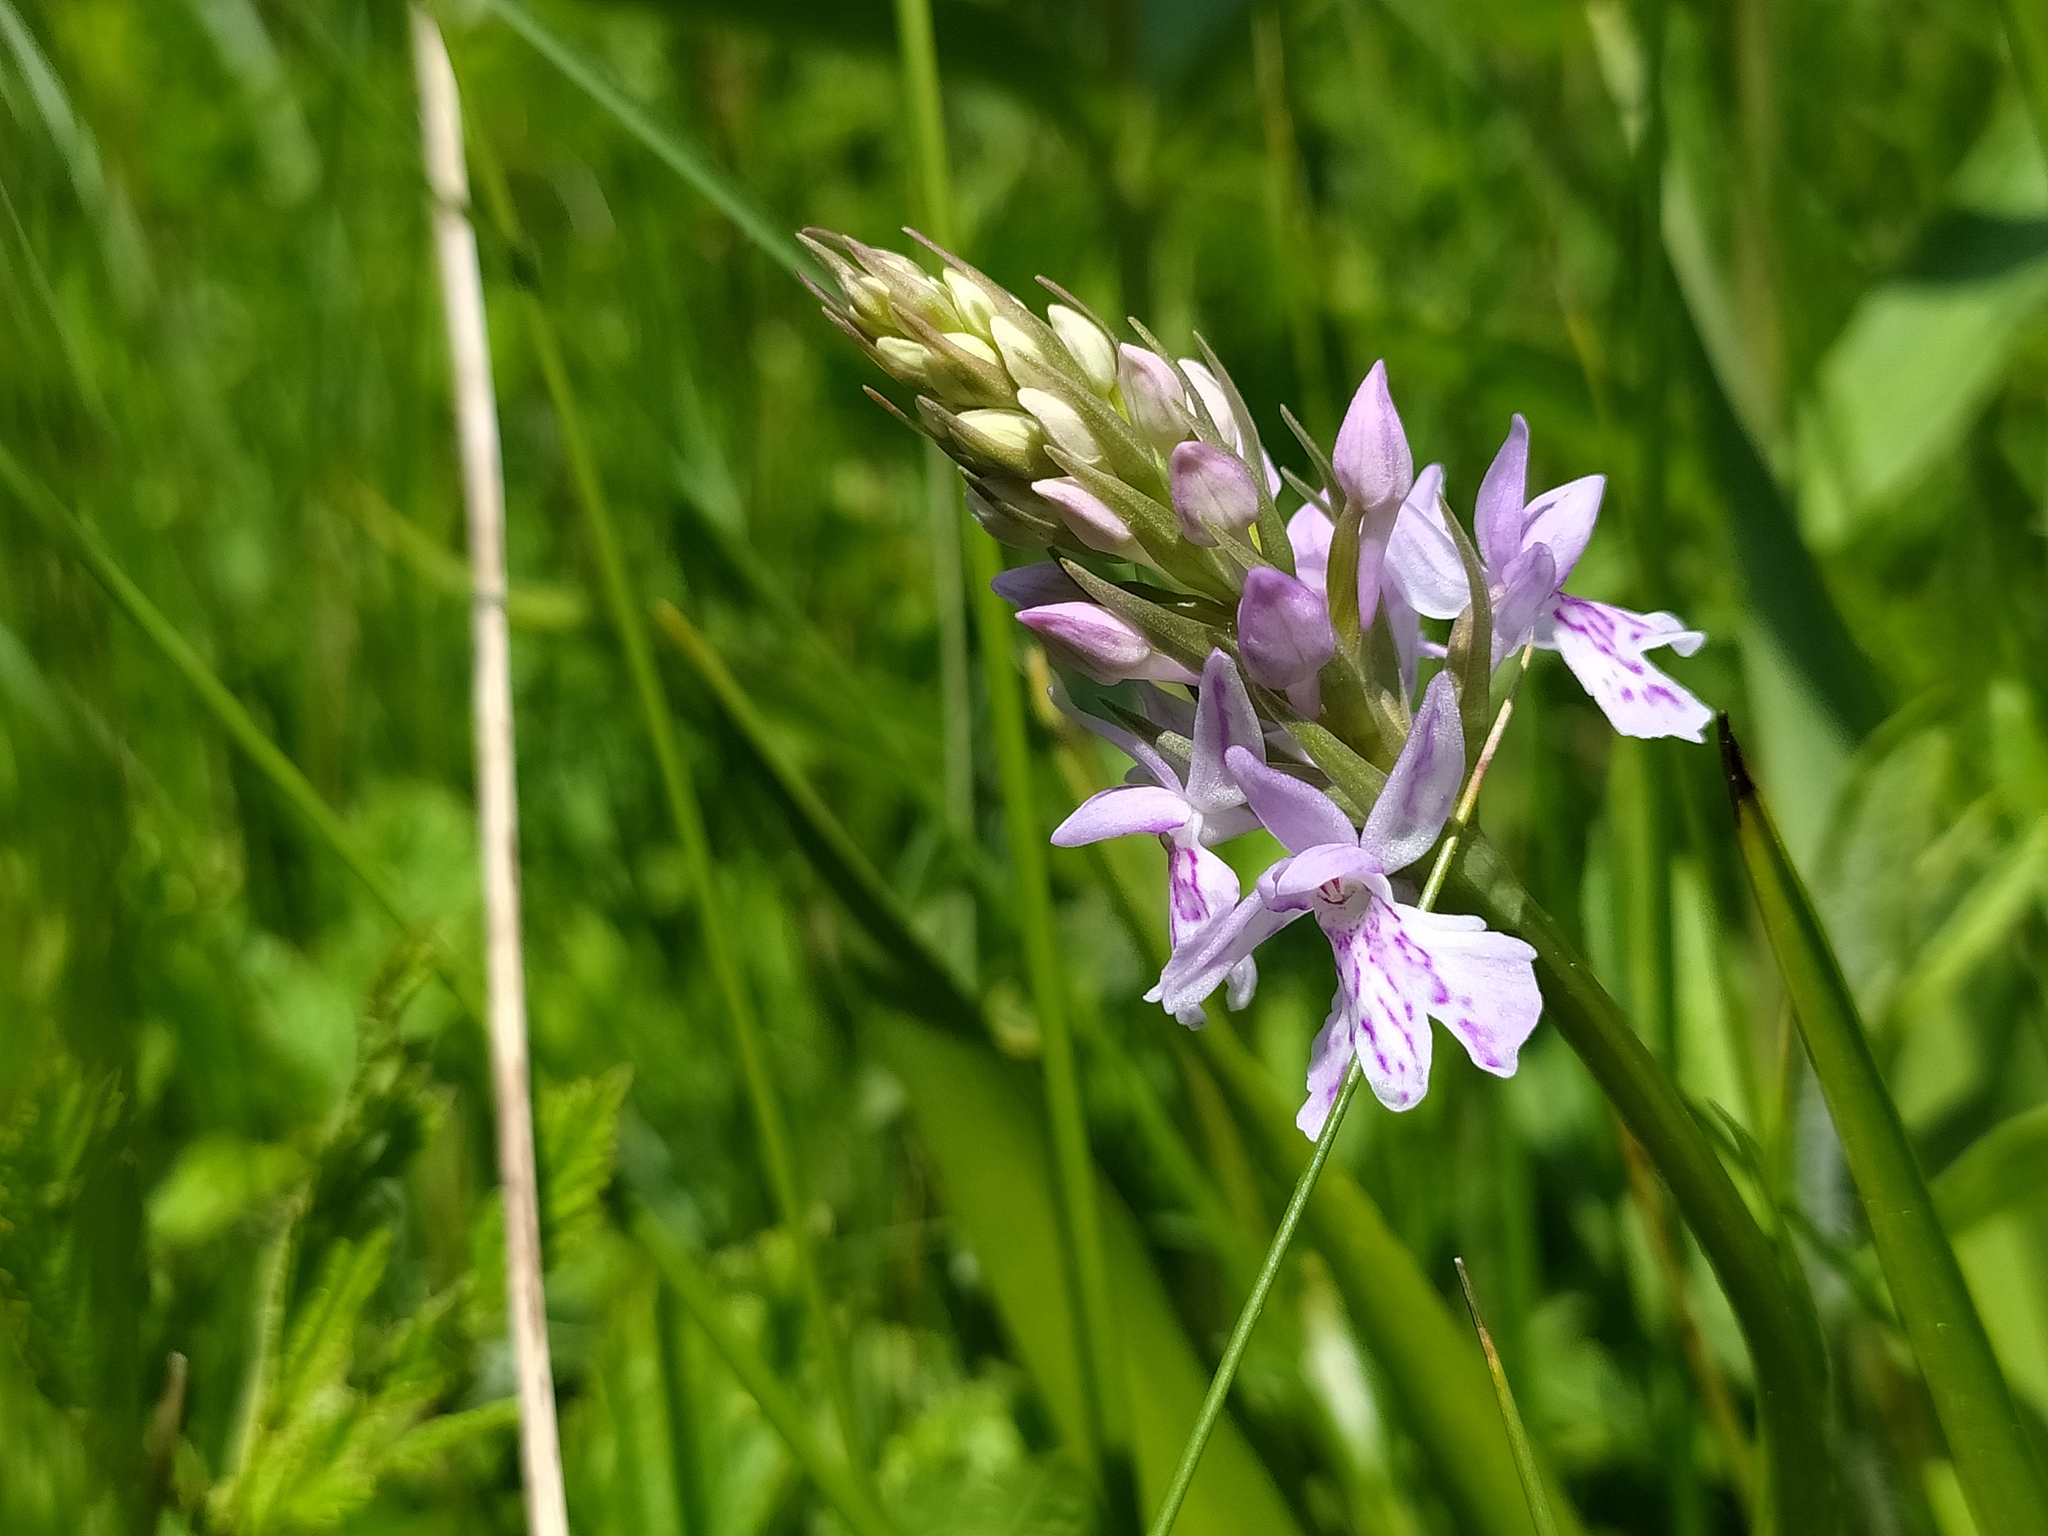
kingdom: Plantae
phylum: Tracheophyta
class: Liliopsida
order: Asparagales
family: Orchidaceae
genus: Dactylorhiza
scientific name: Dactylorhiza maculata
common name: Heath spotted-orchid
